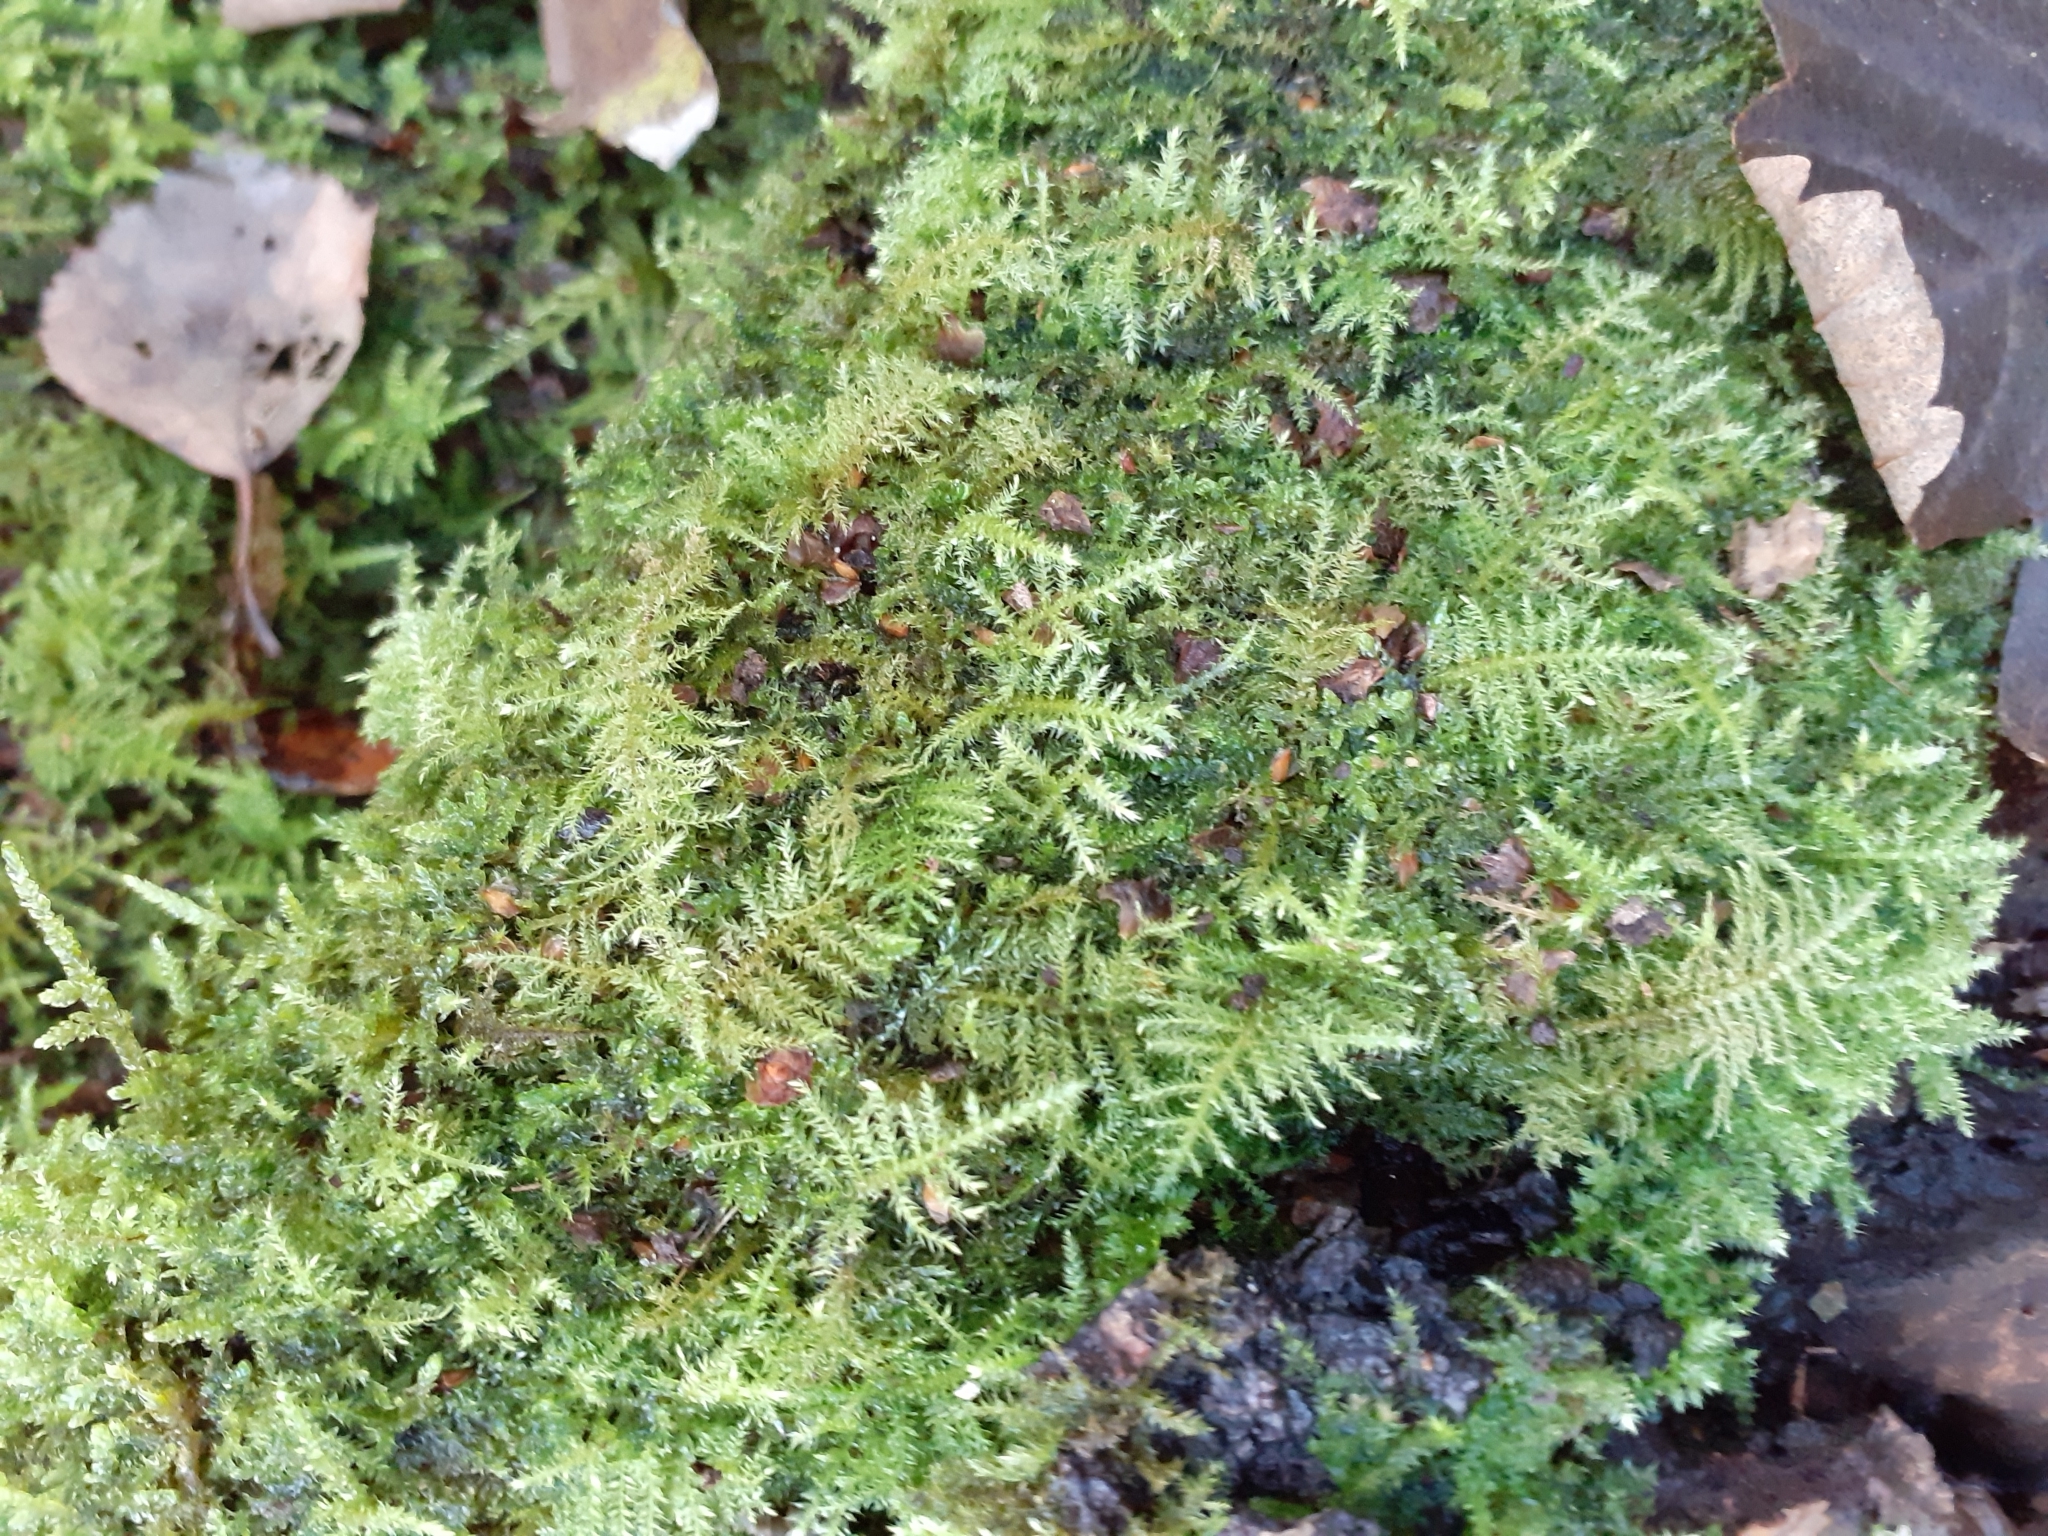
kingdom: Plantae
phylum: Bryophyta
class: Bryopsida
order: Hypnales
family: Brachytheciaceae
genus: Kindbergia
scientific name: Kindbergia praelonga
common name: Slender beaked moss
